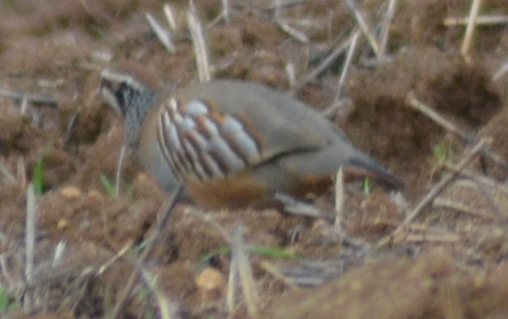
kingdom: Animalia
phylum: Chordata
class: Aves
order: Galliformes
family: Phasianidae
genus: Alectoris
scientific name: Alectoris rufa
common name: Red-legged partridge
